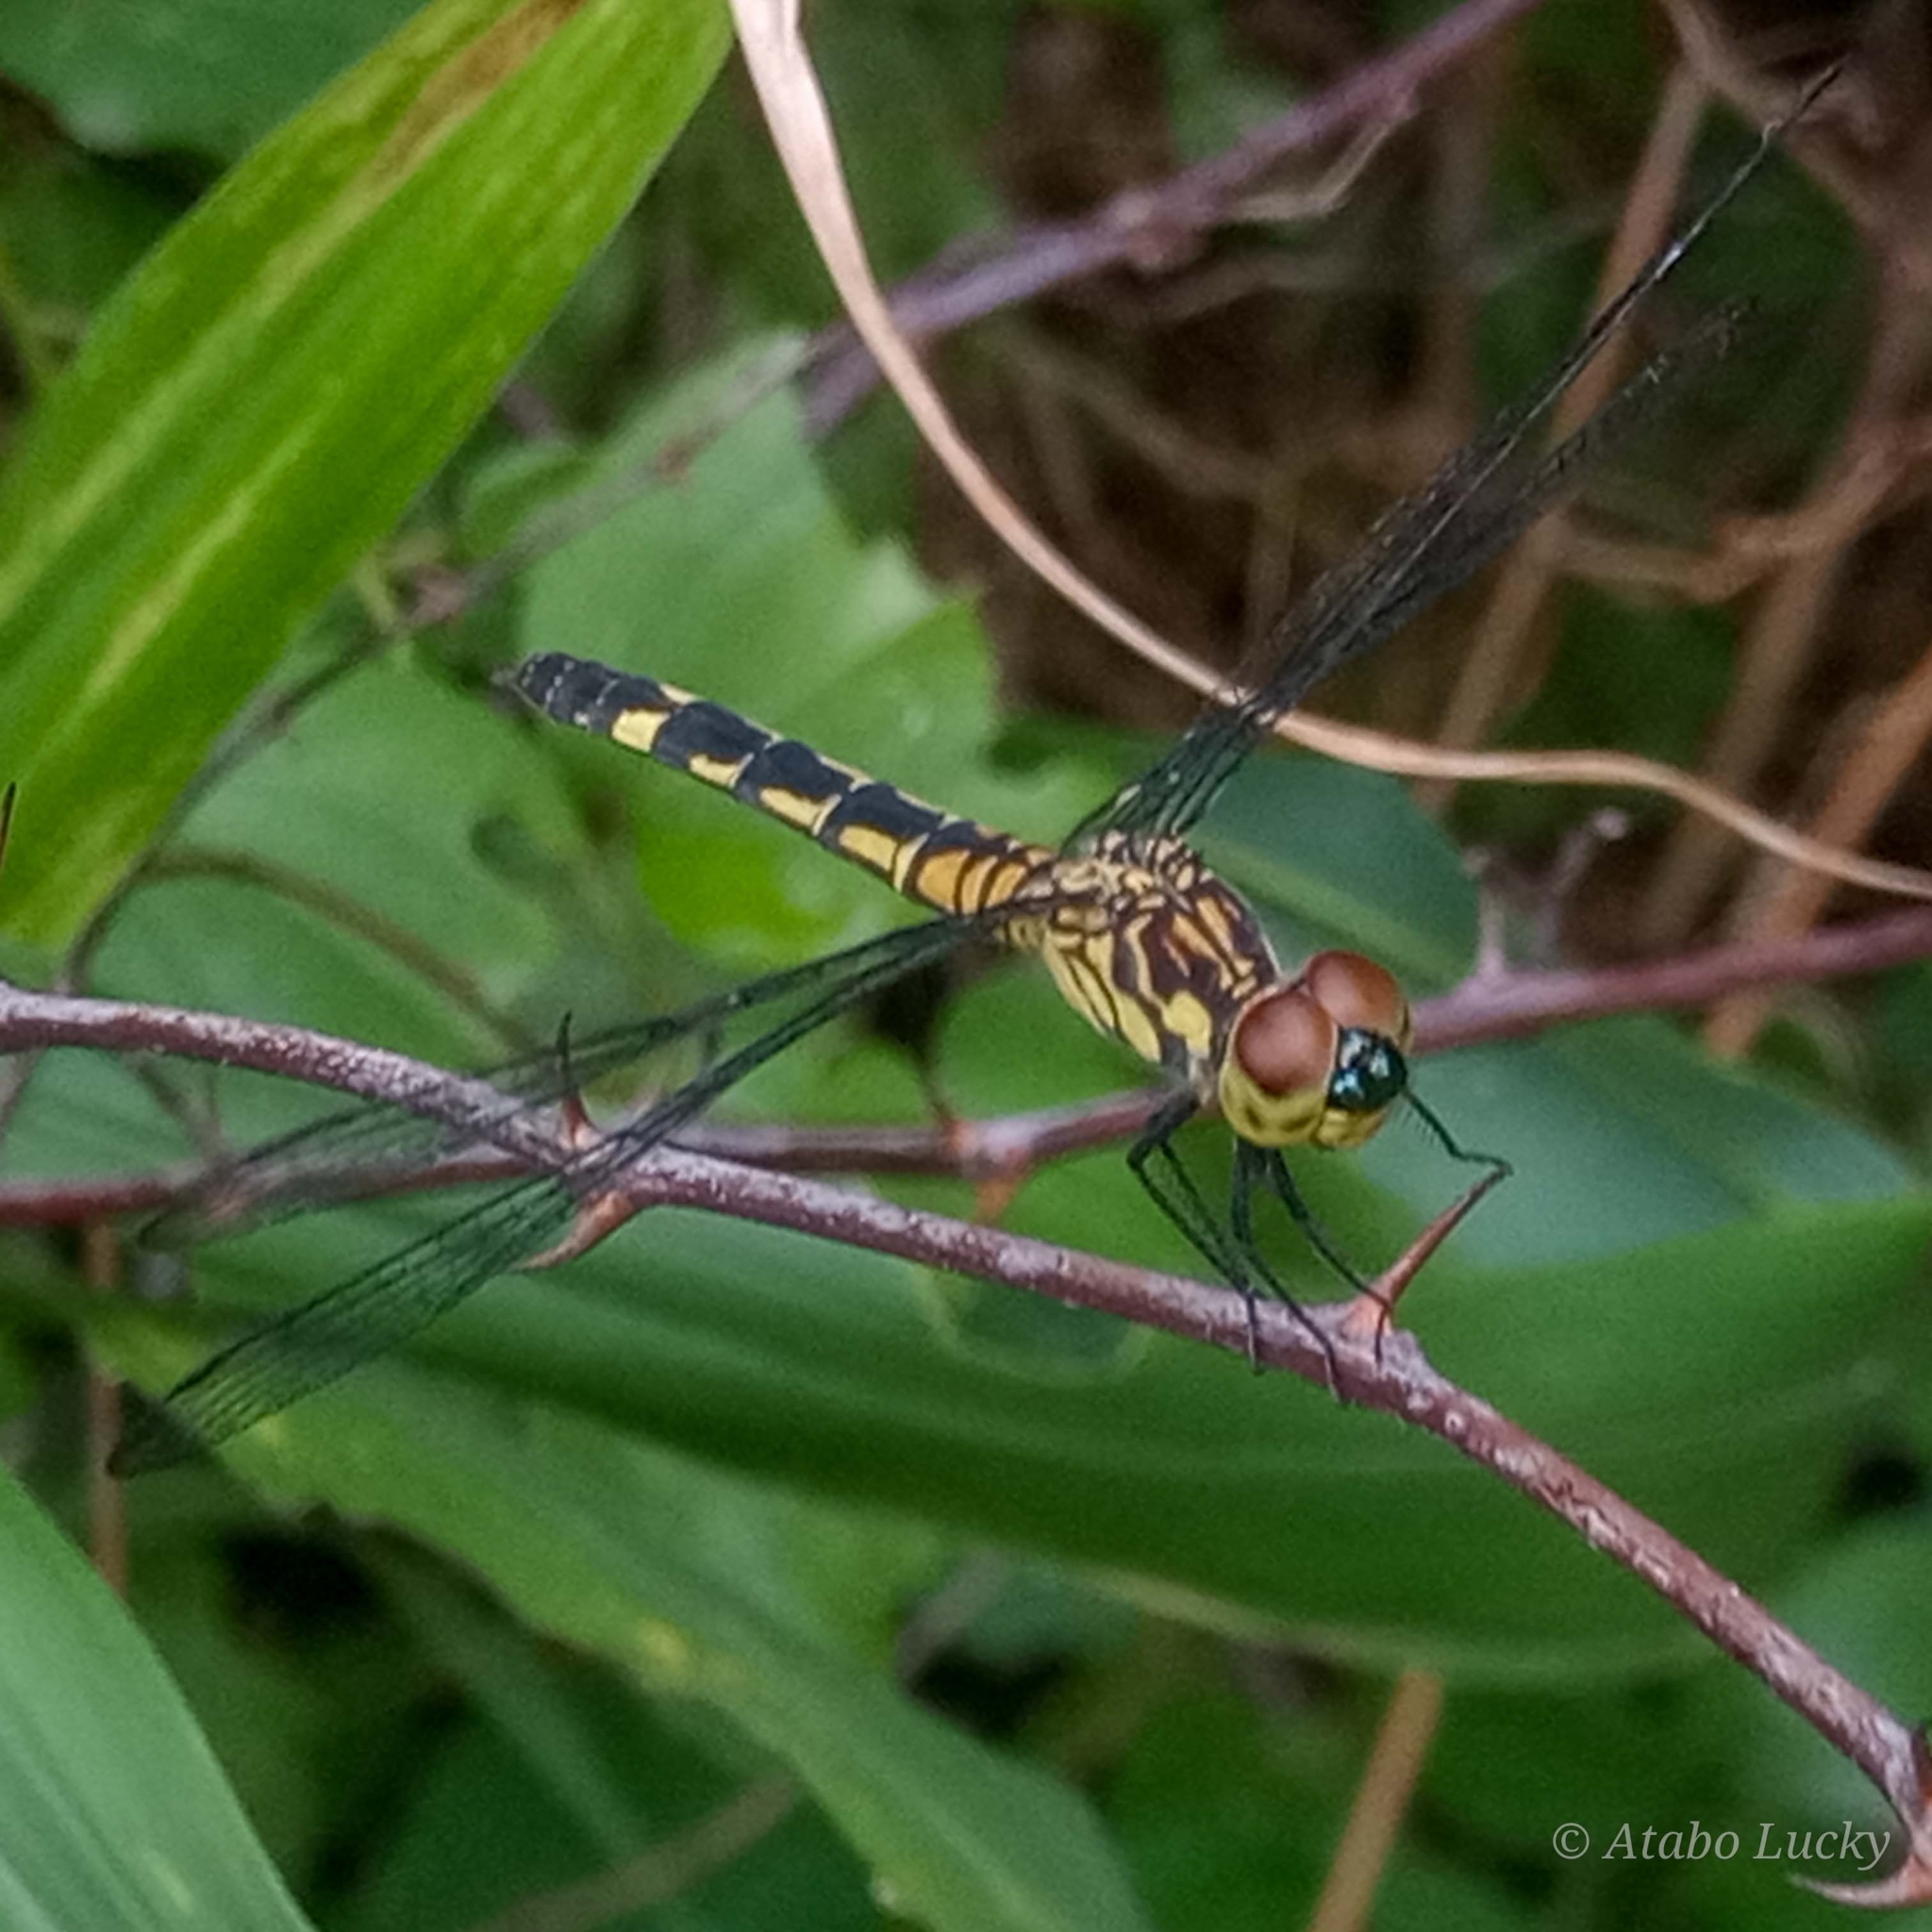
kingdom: Animalia
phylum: Arthropoda
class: Insecta
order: Odonata
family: Libellulidae
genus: Chalcostephia
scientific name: Chalcostephia flavifrons
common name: Inspector
